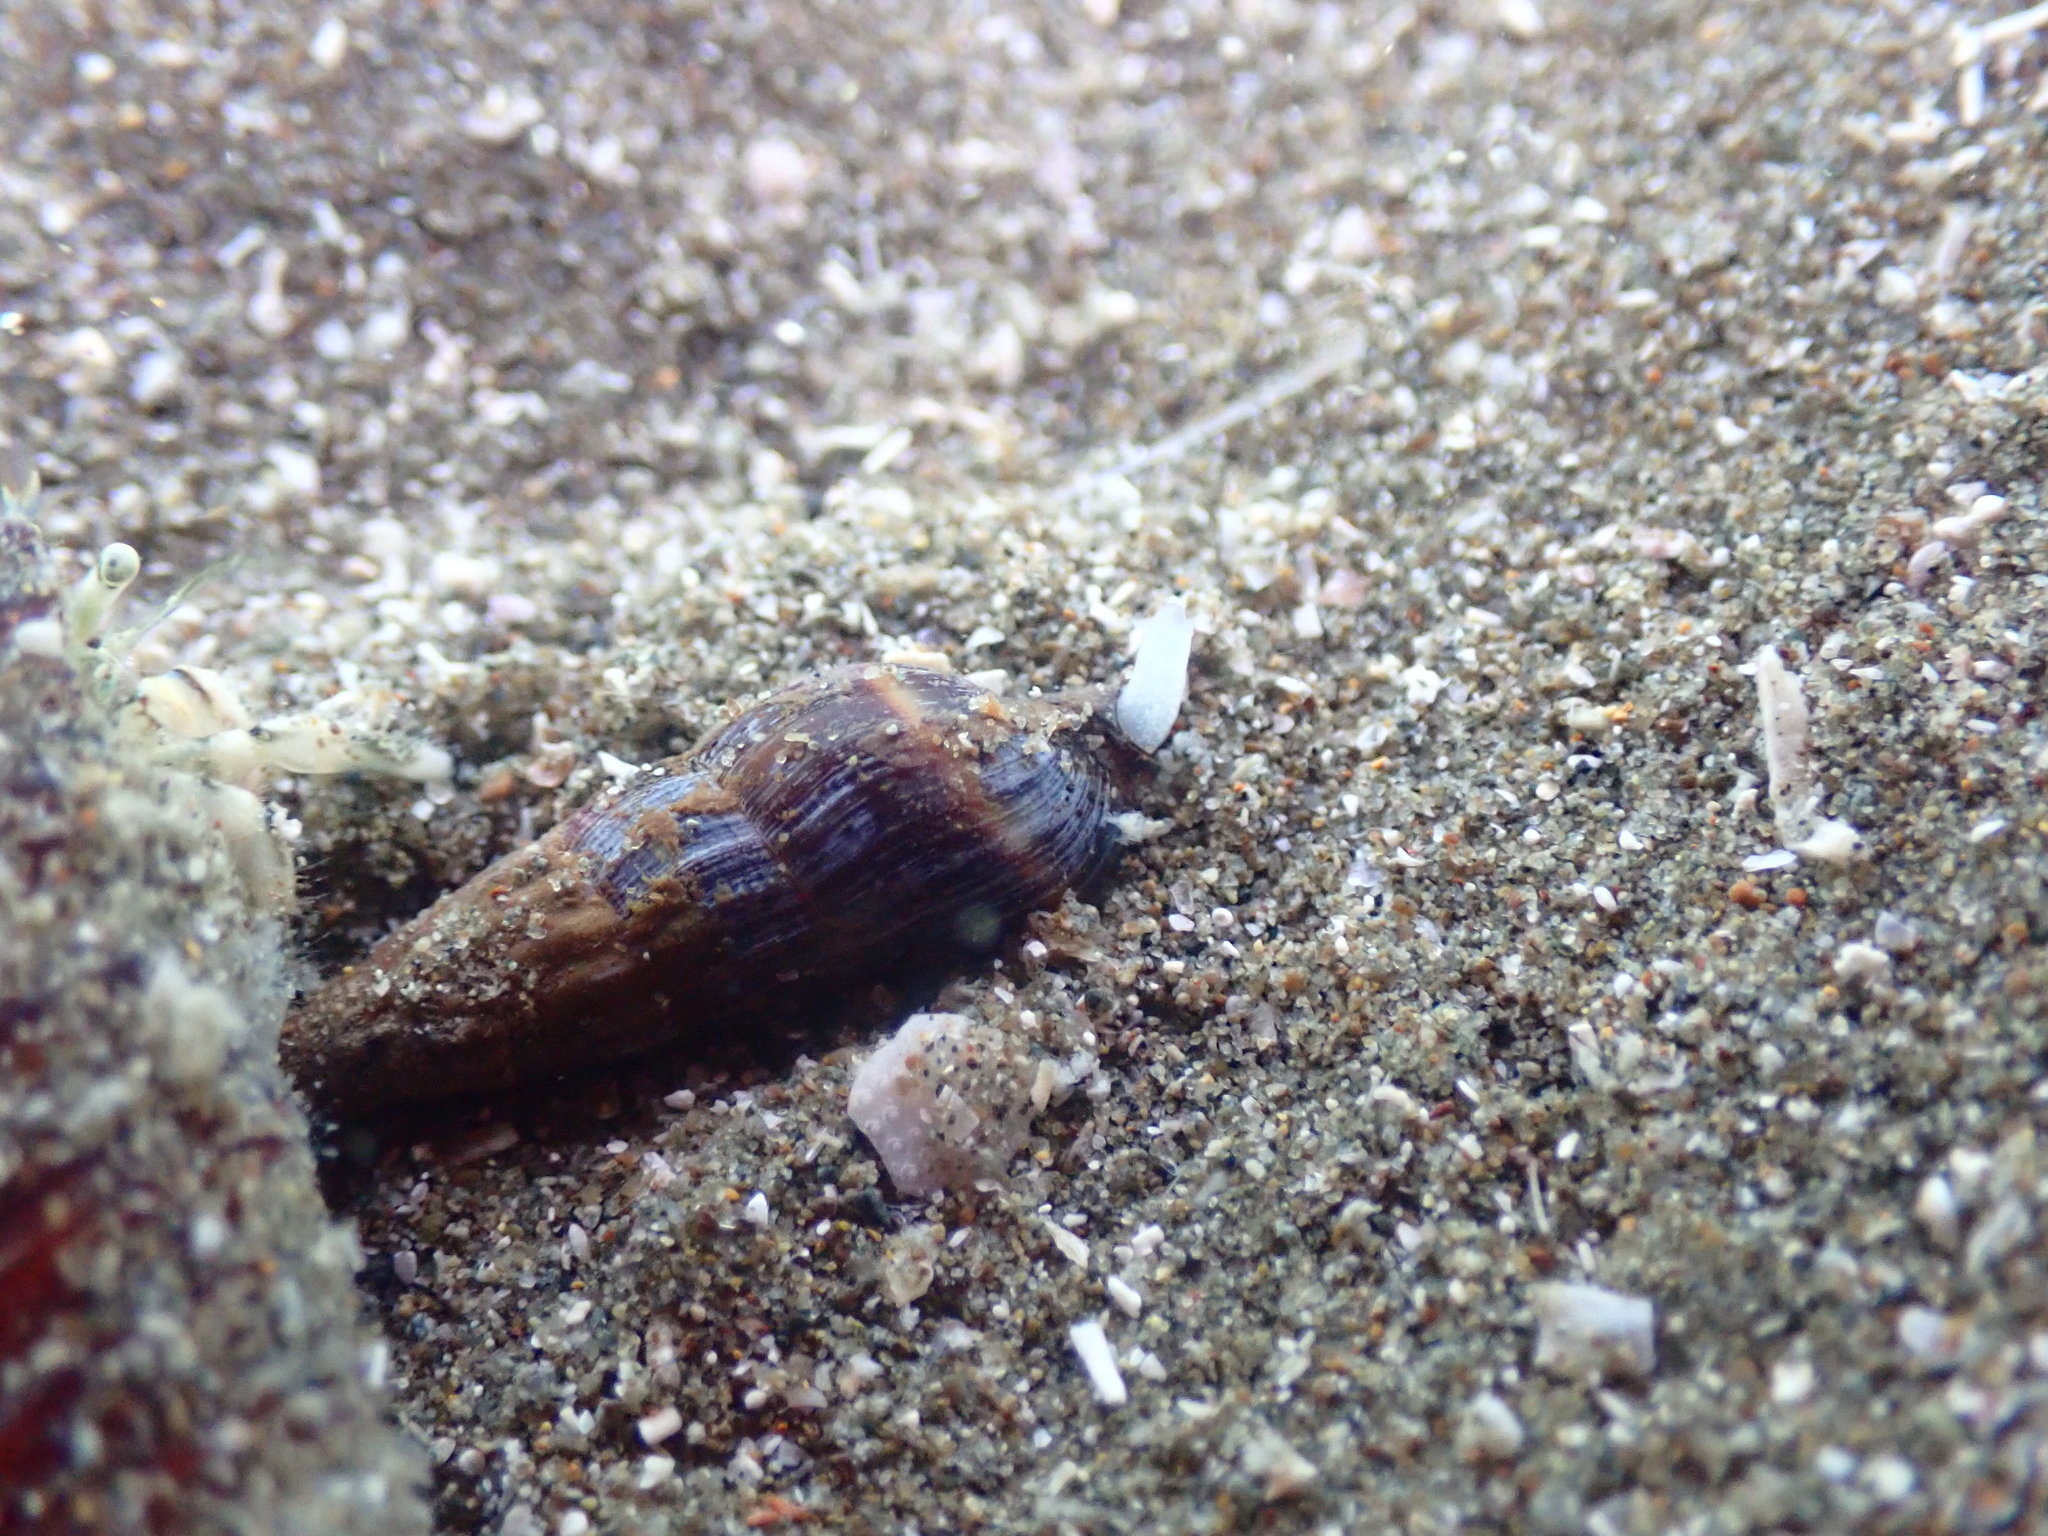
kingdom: Animalia
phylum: Mollusca
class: Gastropoda
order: Neogastropoda
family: Terebridae
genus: Duplicaria
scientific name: Duplicaria tristis
